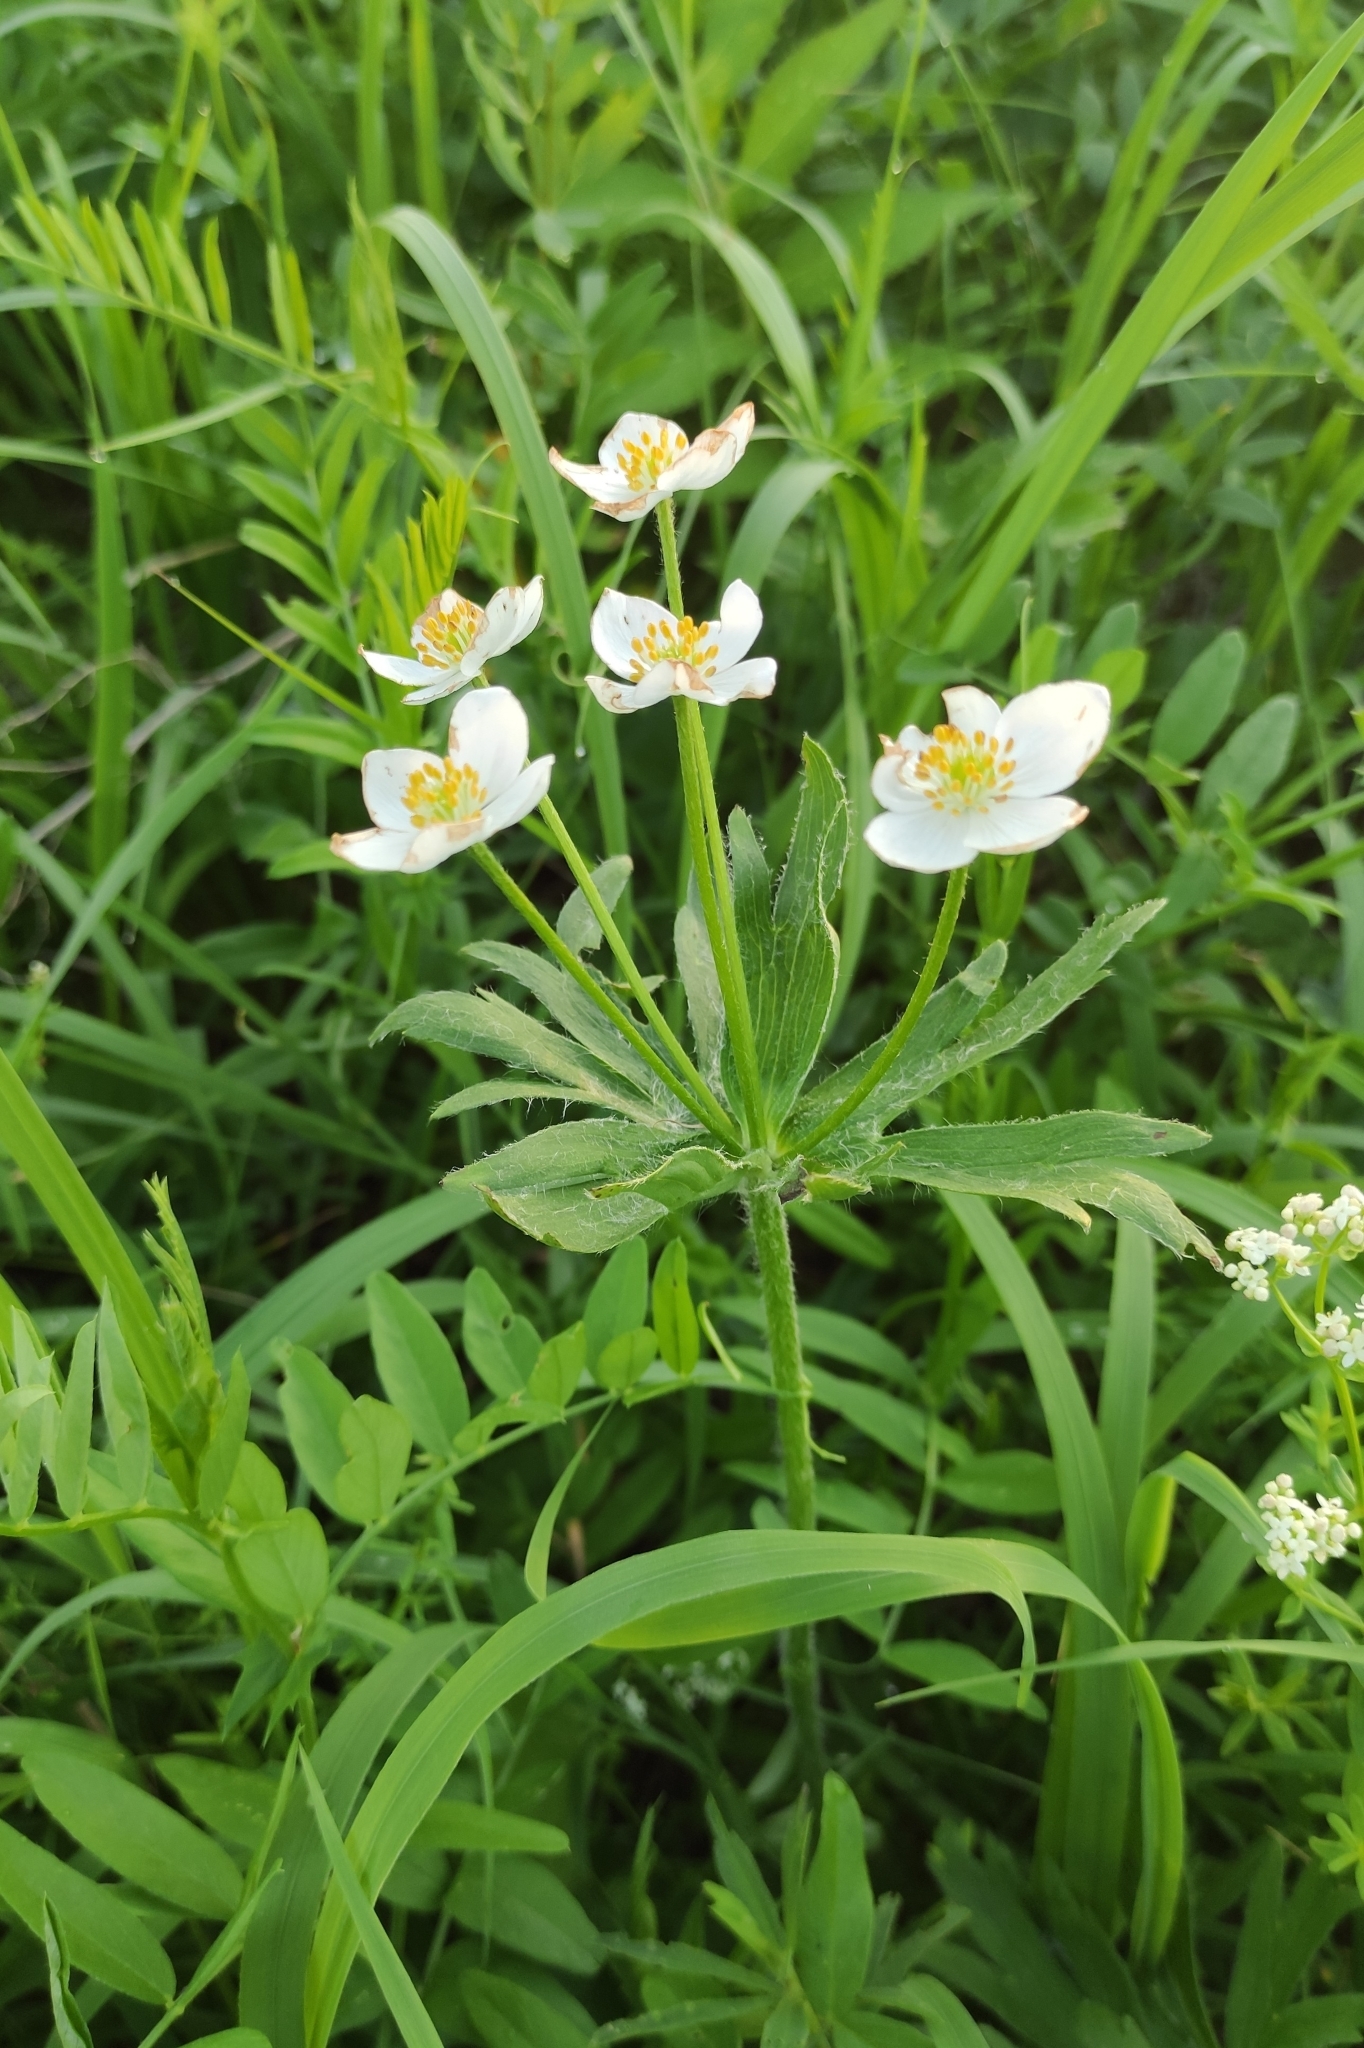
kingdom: Plantae
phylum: Tracheophyta
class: Magnoliopsida
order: Ranunculales
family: Ranunculaceae
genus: Anemonastrum
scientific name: Anemonastrum narcissiflorum
